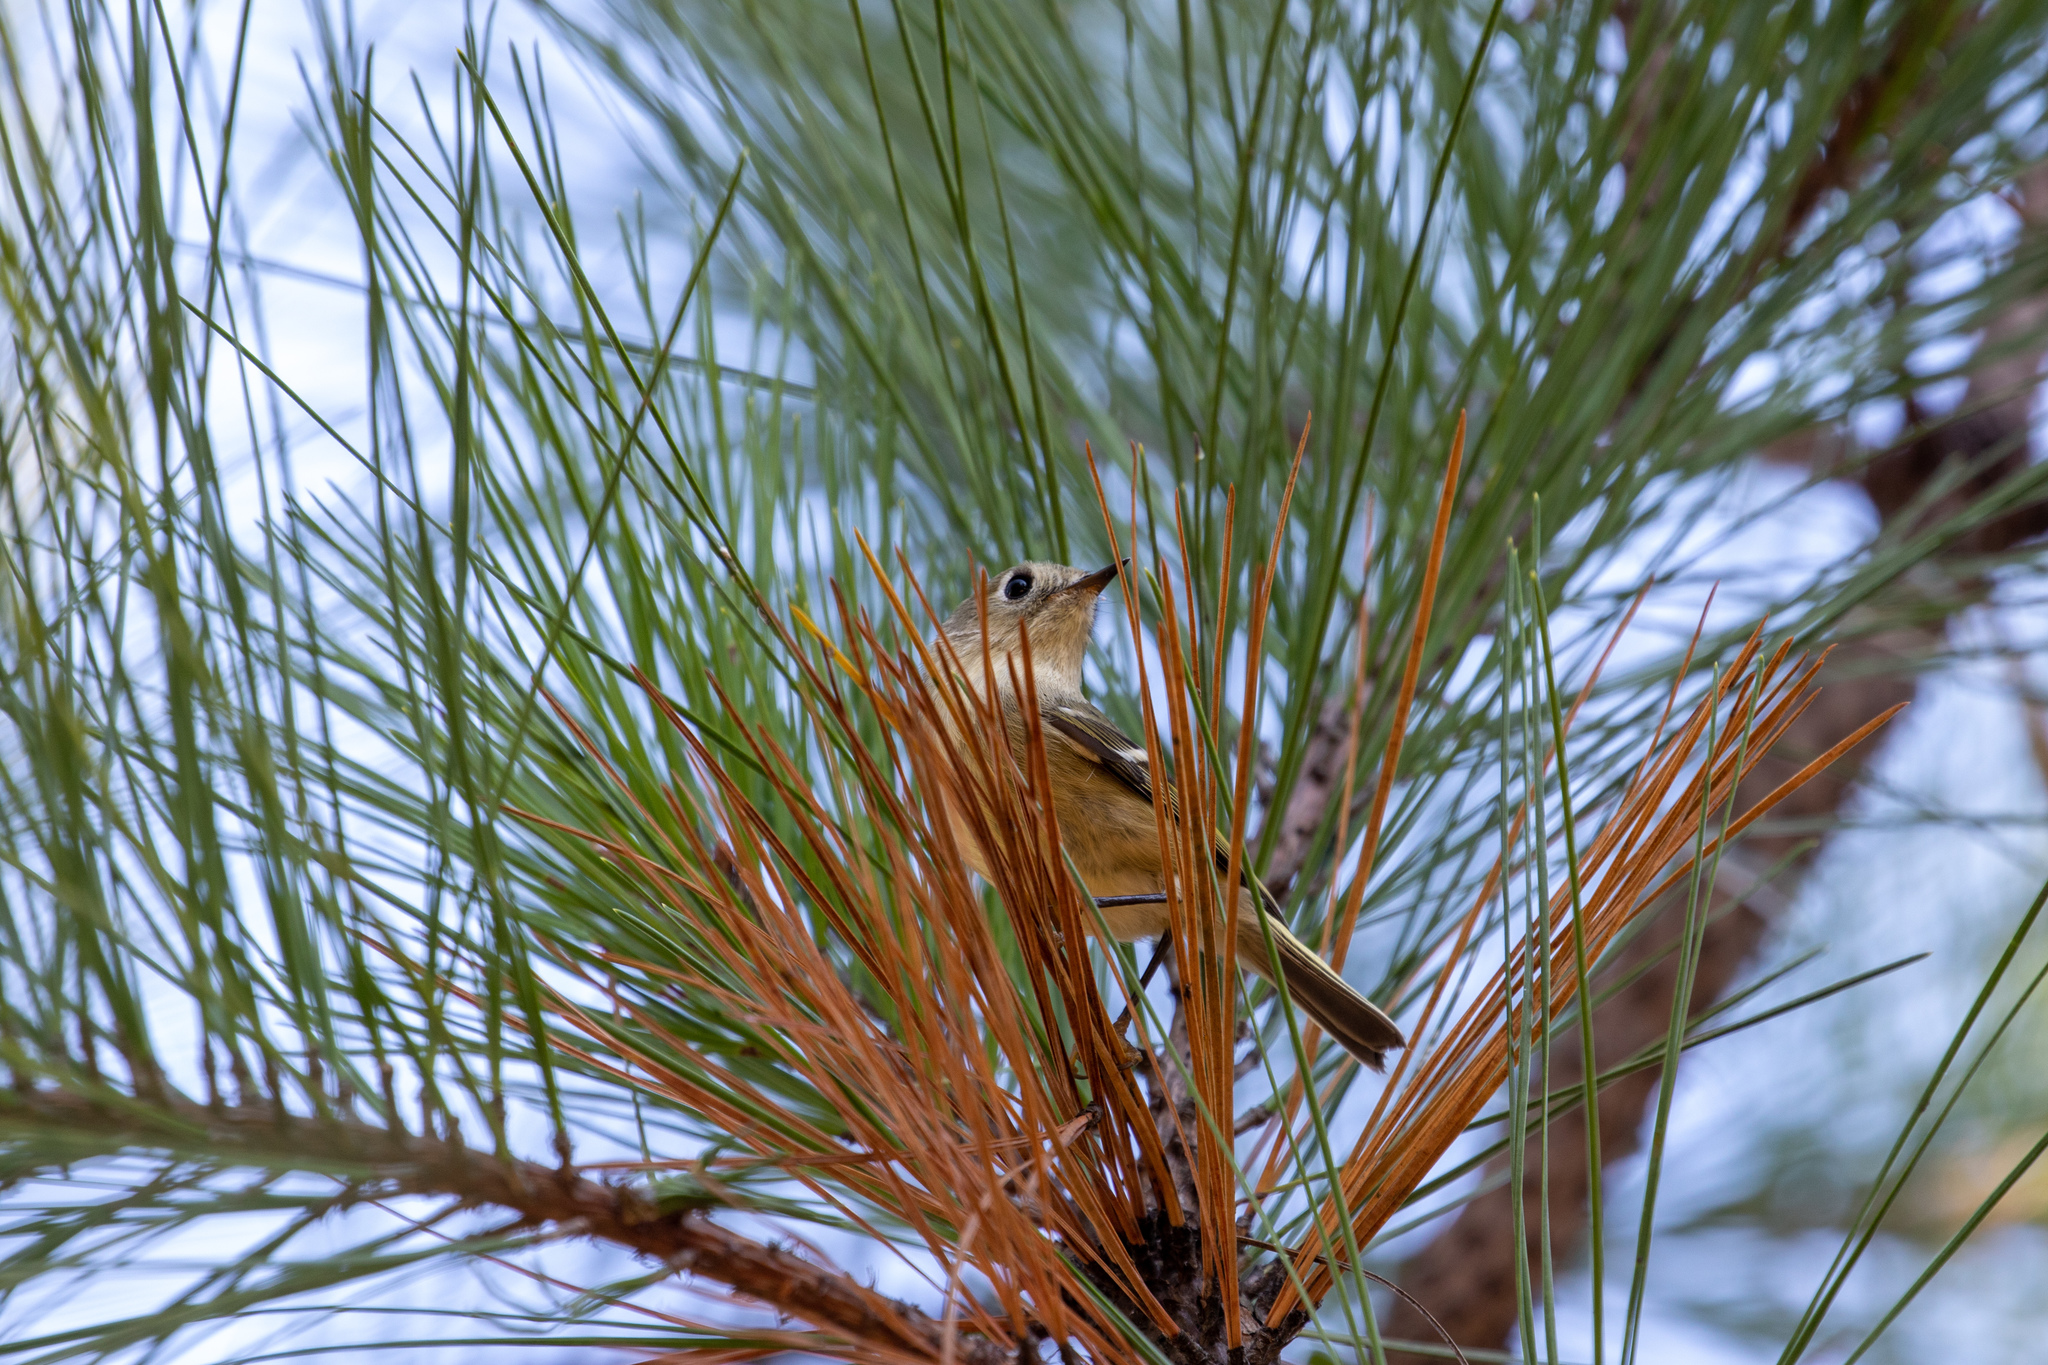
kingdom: Animalia
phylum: Chordata
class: Aves
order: Passeriformes
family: Regulidae
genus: Regulus
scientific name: Regulus calendula
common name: Ruby-crowned kinglet
